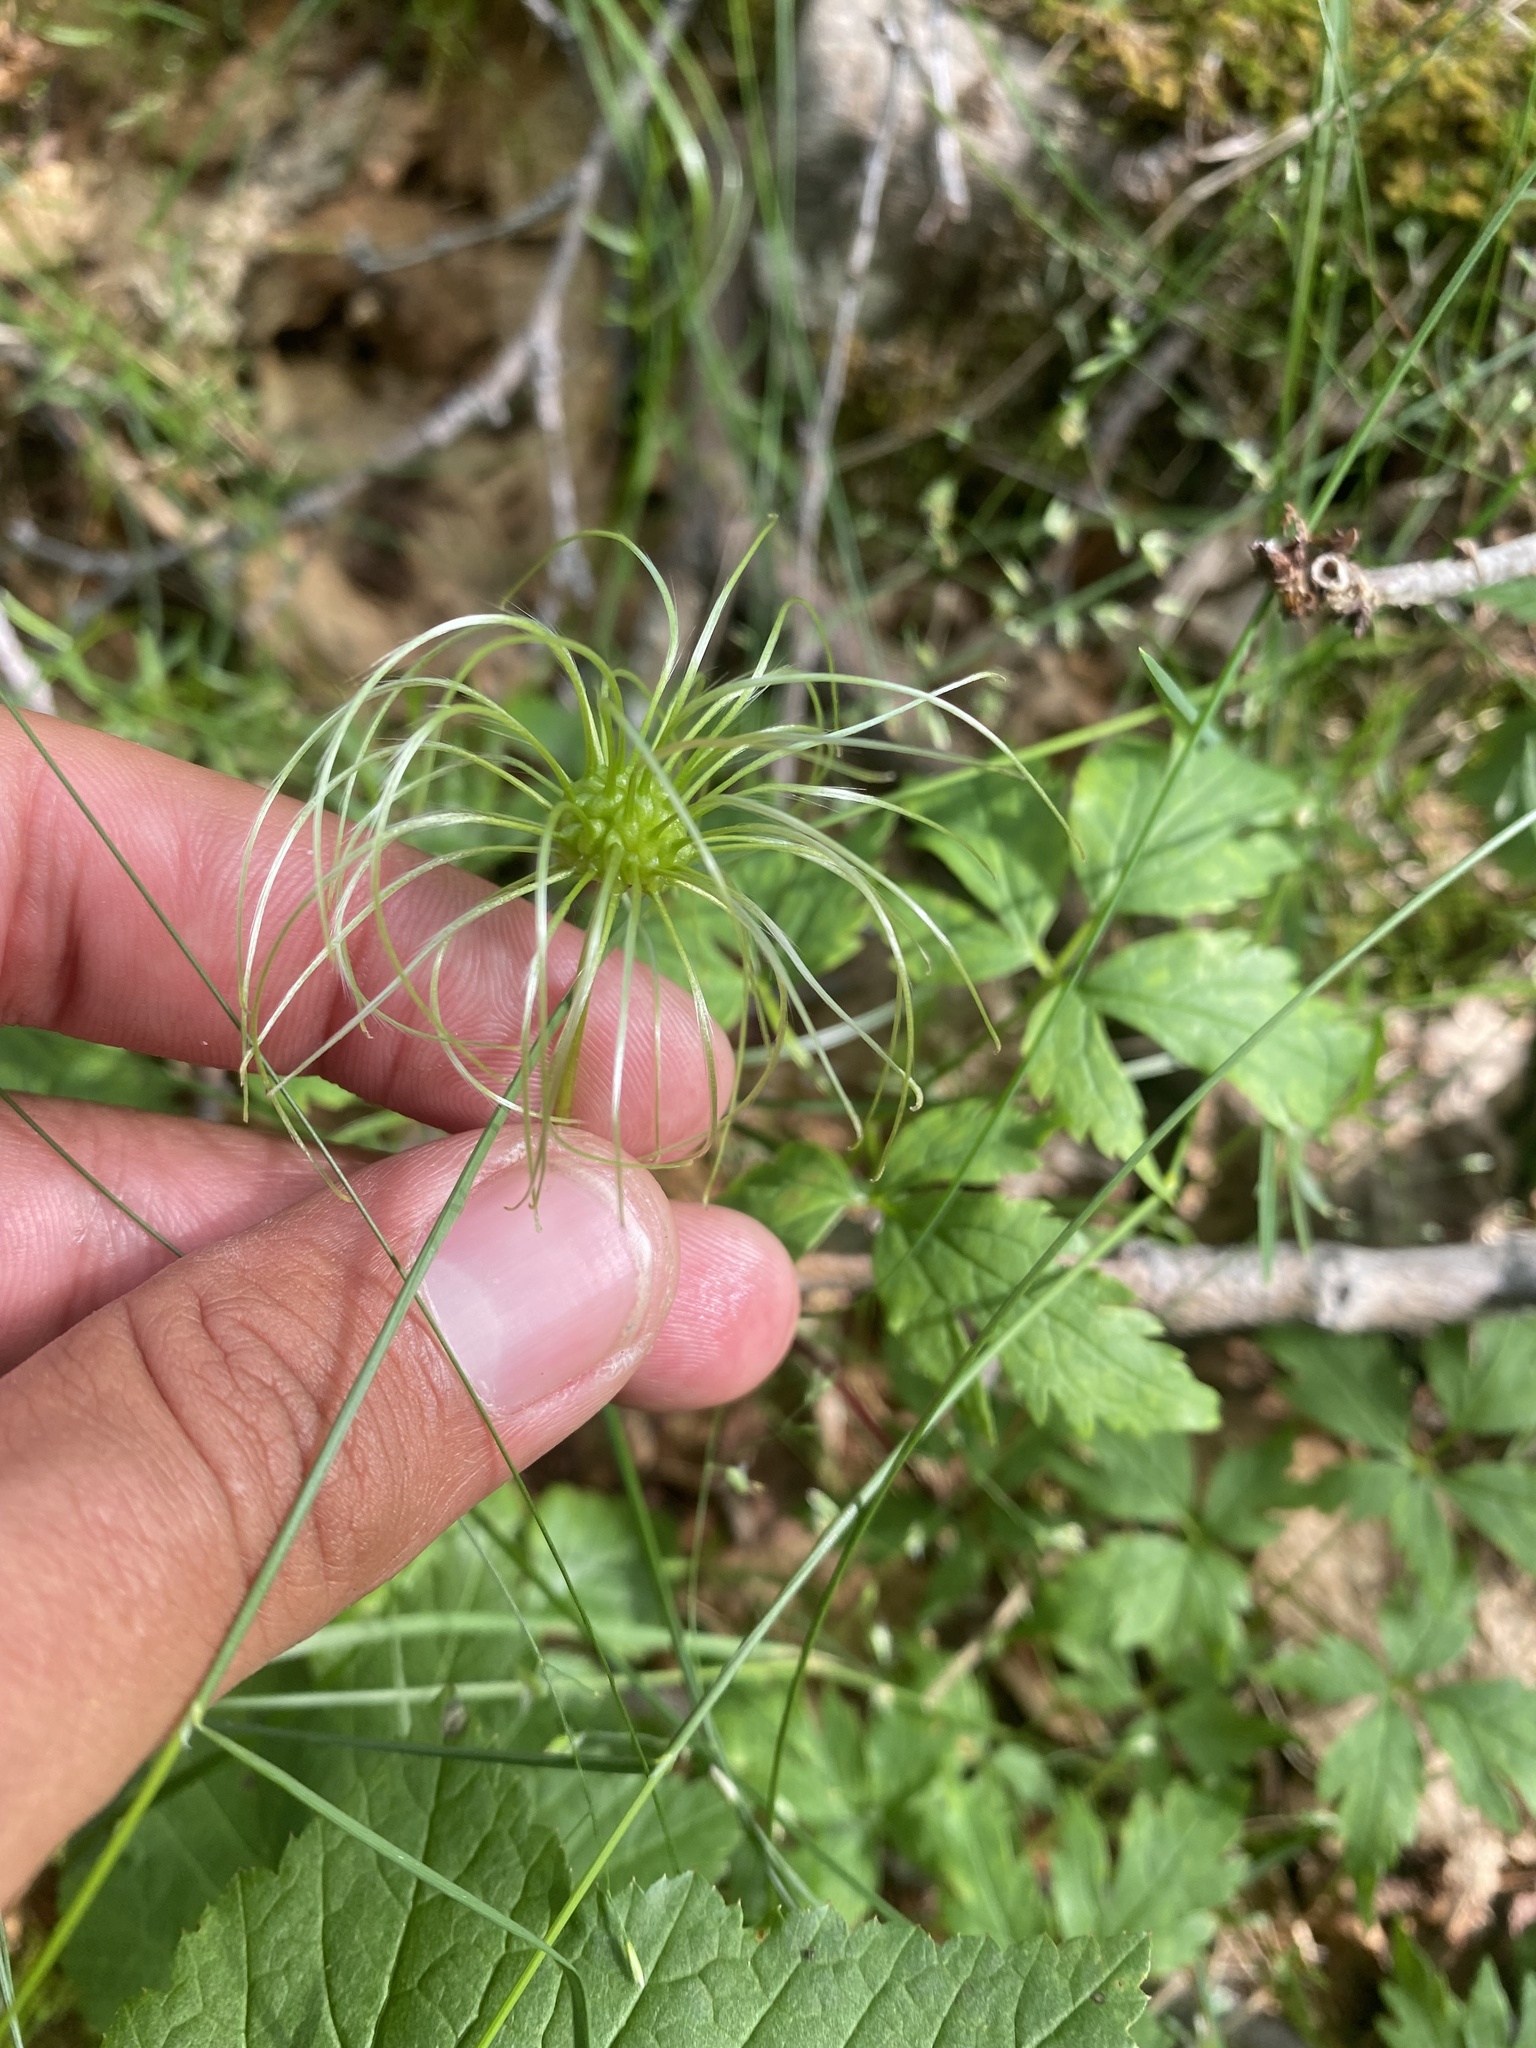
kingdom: Plantae
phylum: Tracheophyta
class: Magnoliopsida
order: Ranunculales
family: Ranunculaceae
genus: Clematis
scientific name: Clematis sibirica
